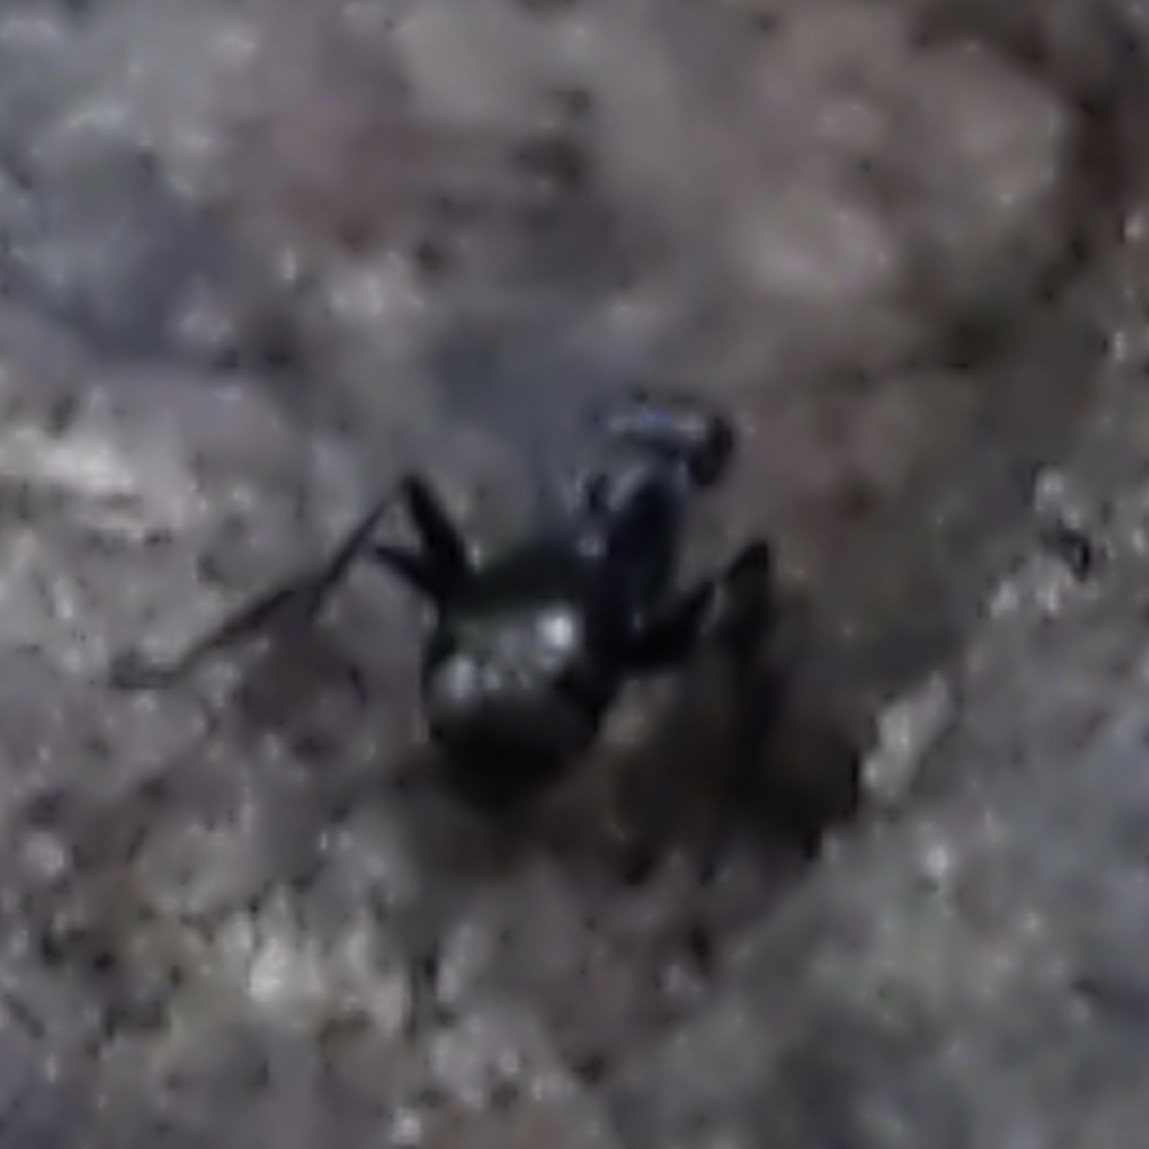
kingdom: Animalia
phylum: Arthropoda
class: Insecta
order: Hymenoptera
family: Formicidae
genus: Formica
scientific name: Formica
